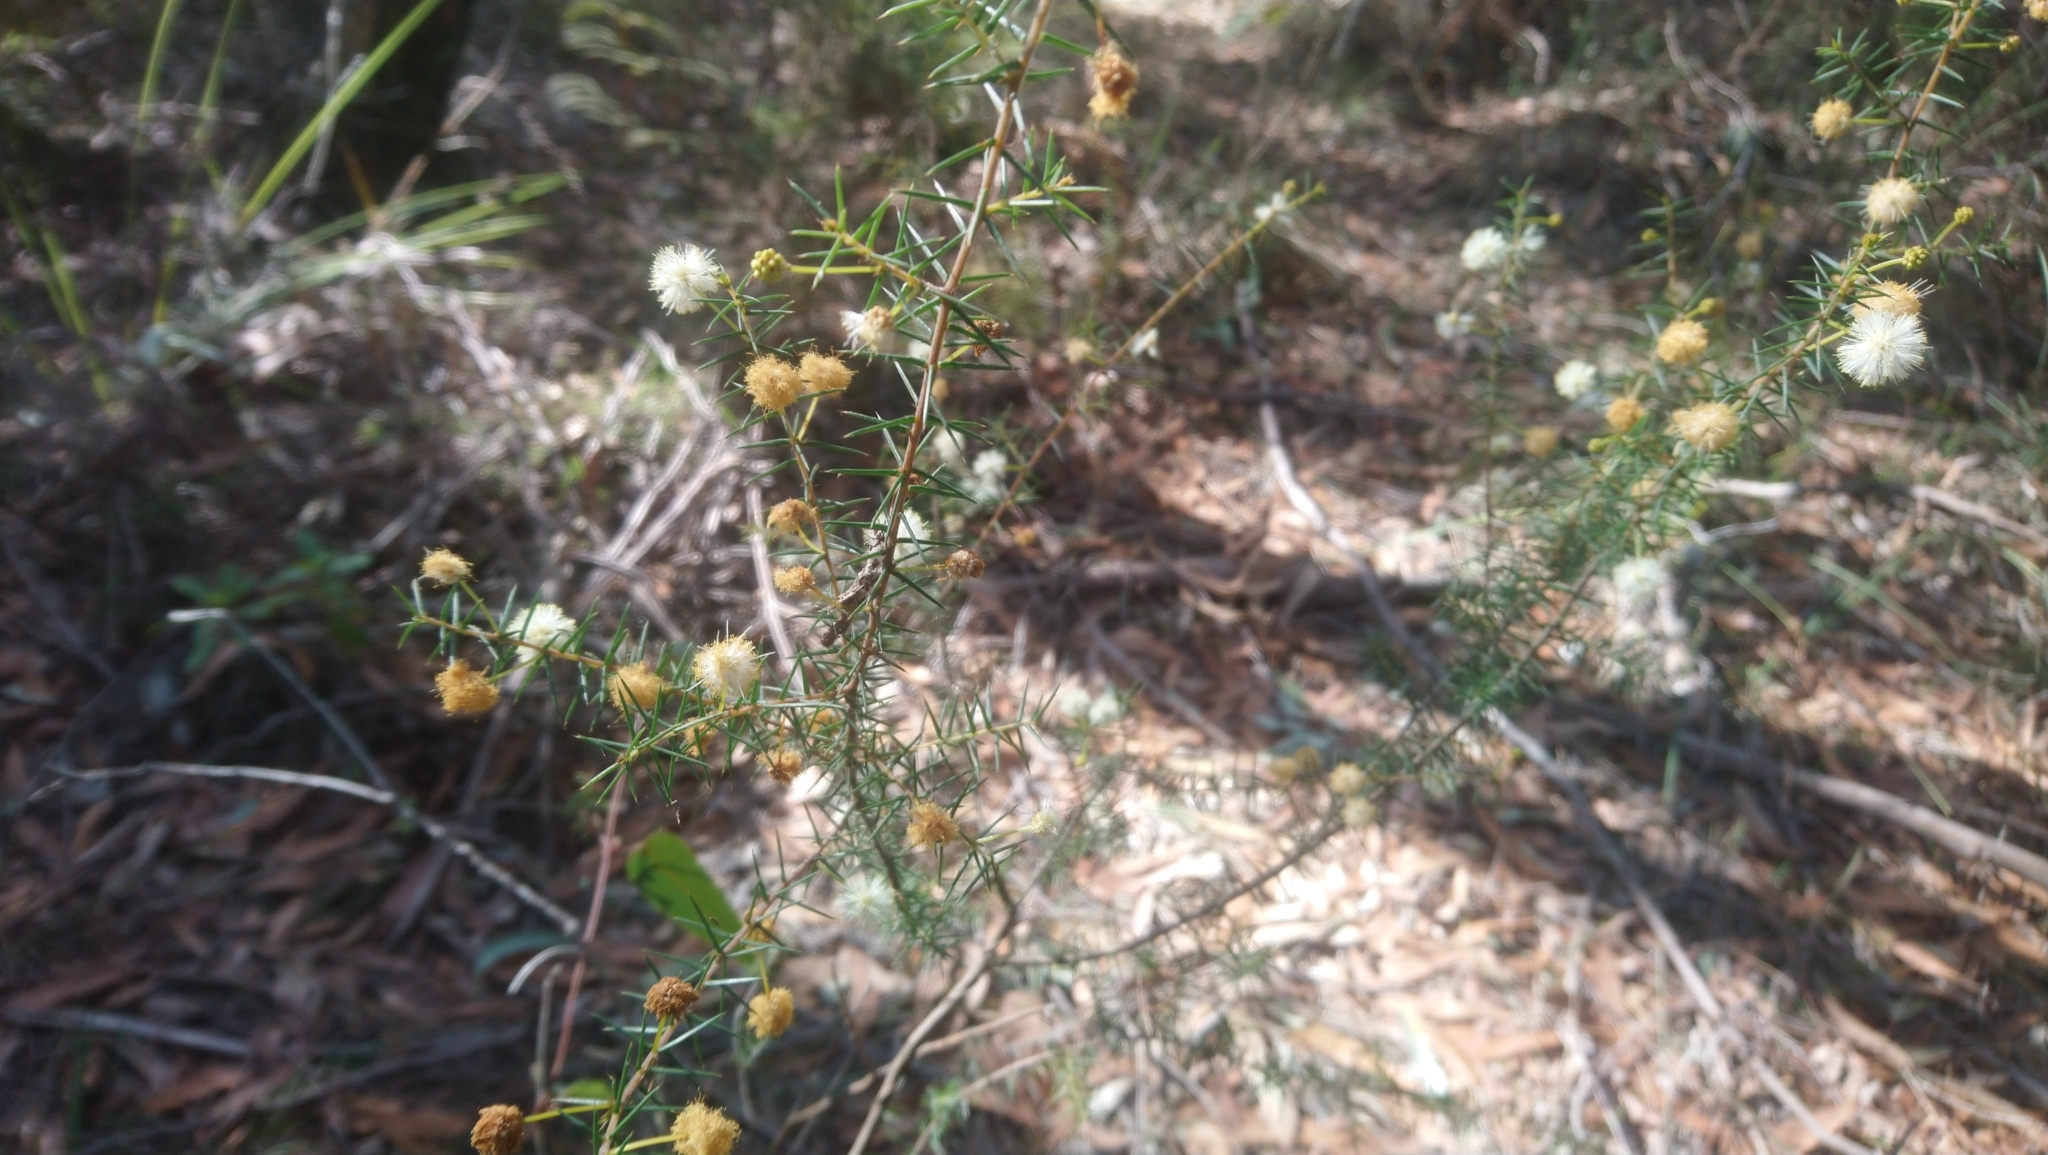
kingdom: Plantae
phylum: Tracheophyta
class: Magnoliopsida
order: Fabales
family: Fabaceae
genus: Acacia
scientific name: Acacia ulicifolia
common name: Juniper wattle
